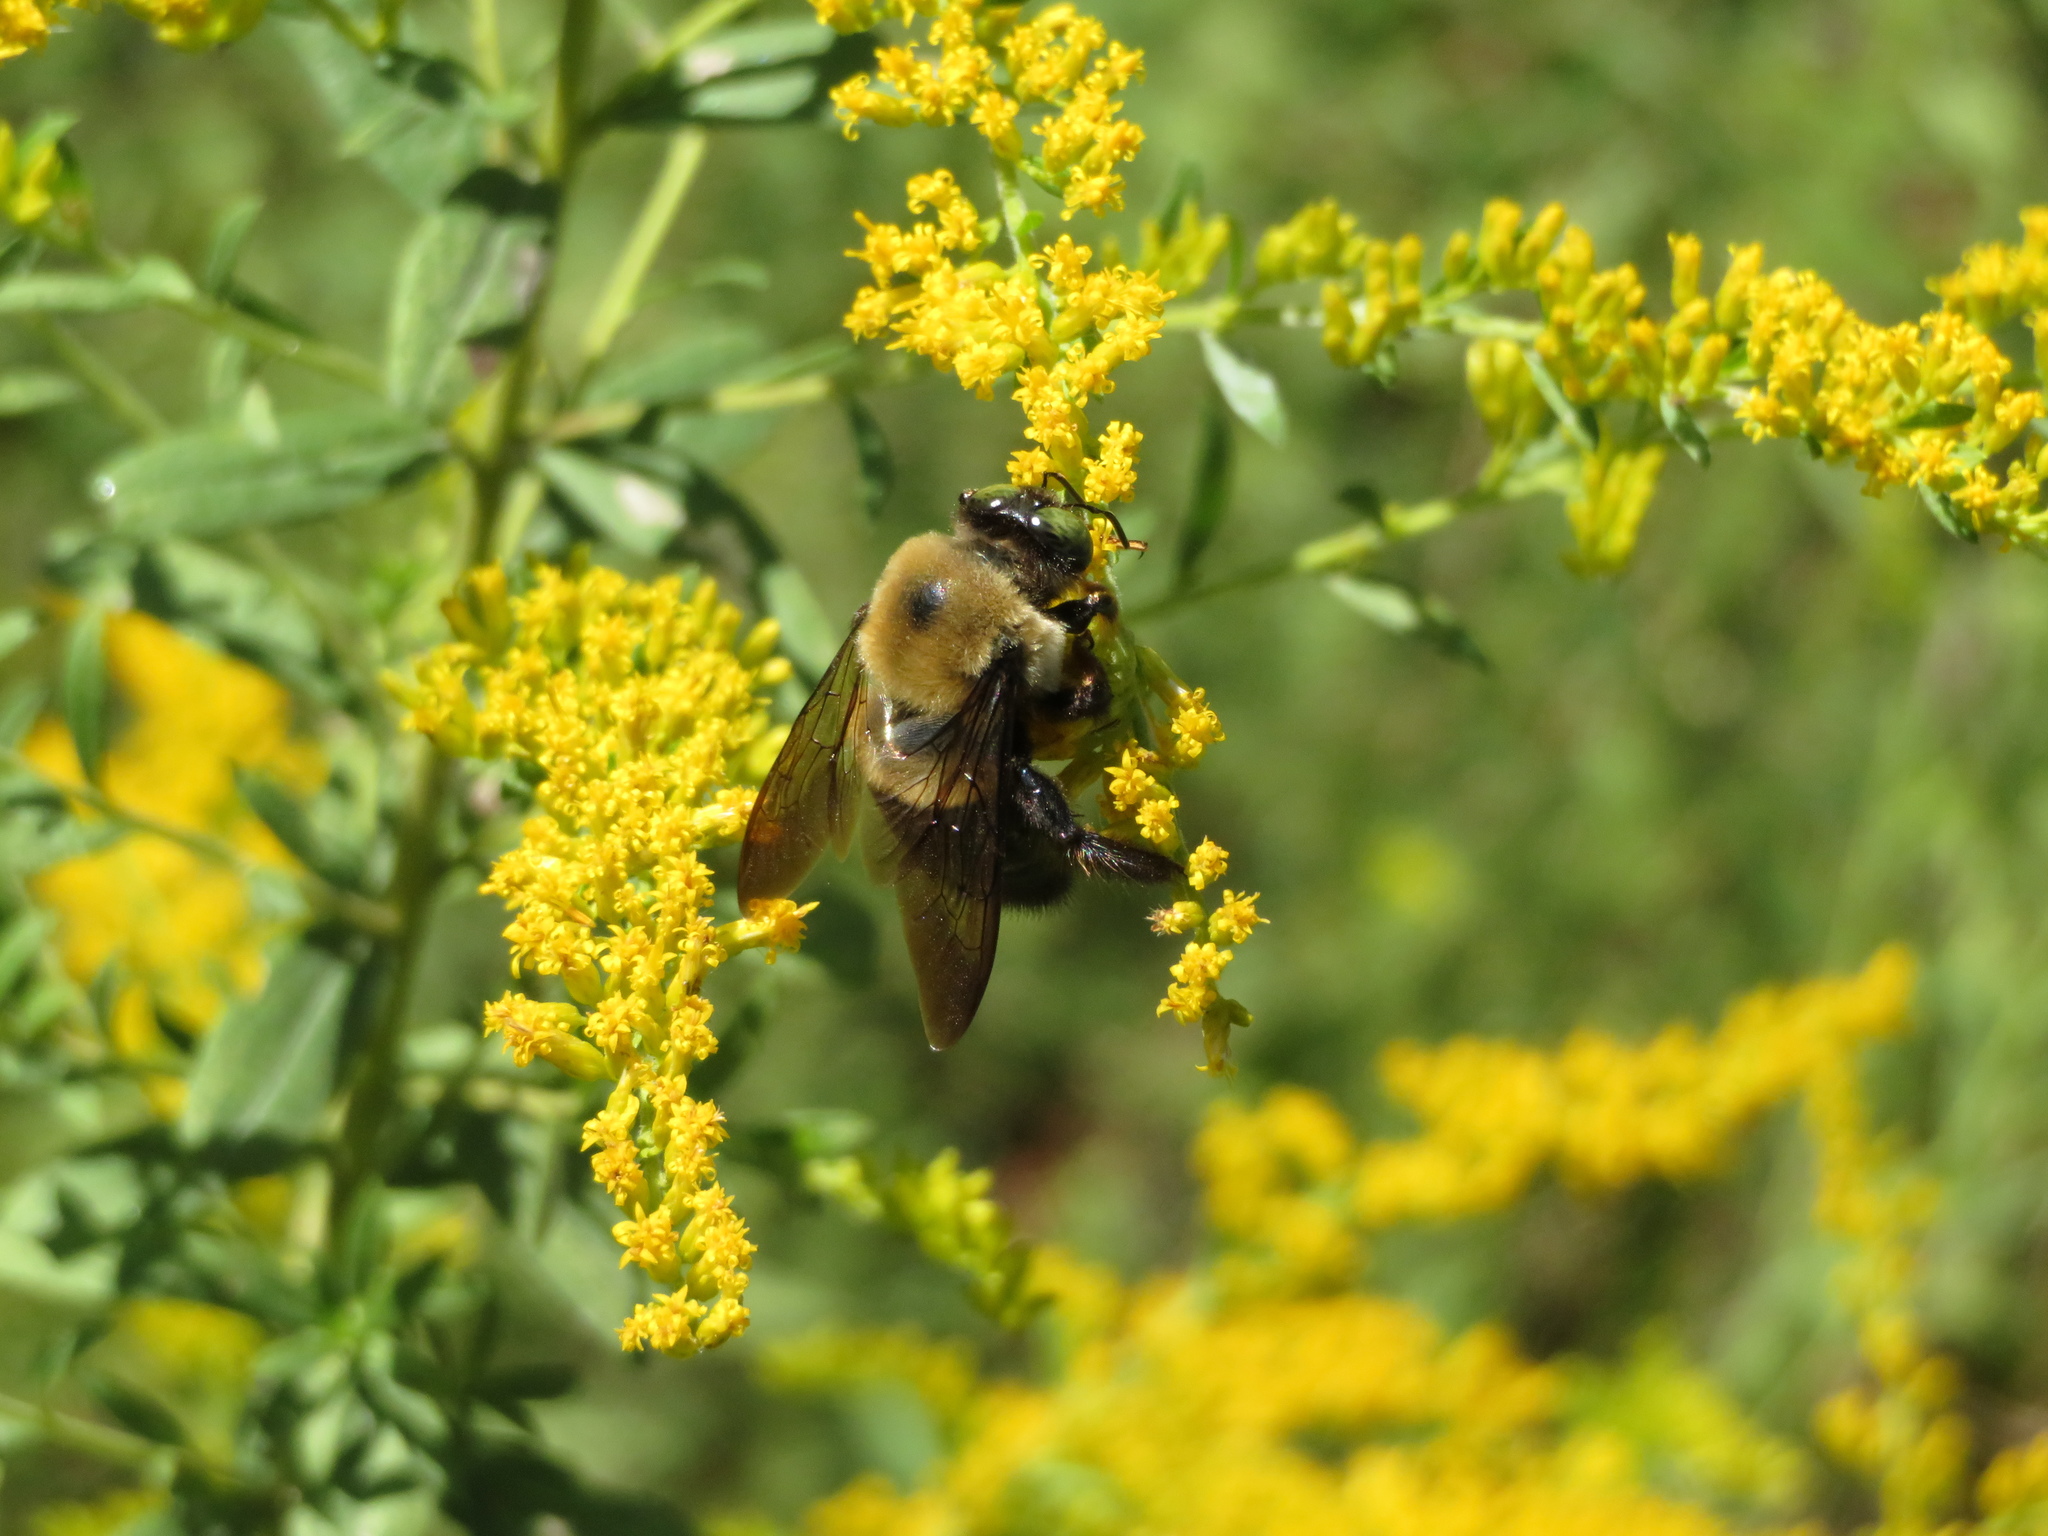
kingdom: Animalia
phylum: Arthropoda
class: Insecta
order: Hymenoptera
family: Apidae
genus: Xylocopa
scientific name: Xylocopa virginica
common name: Carpenter bee
